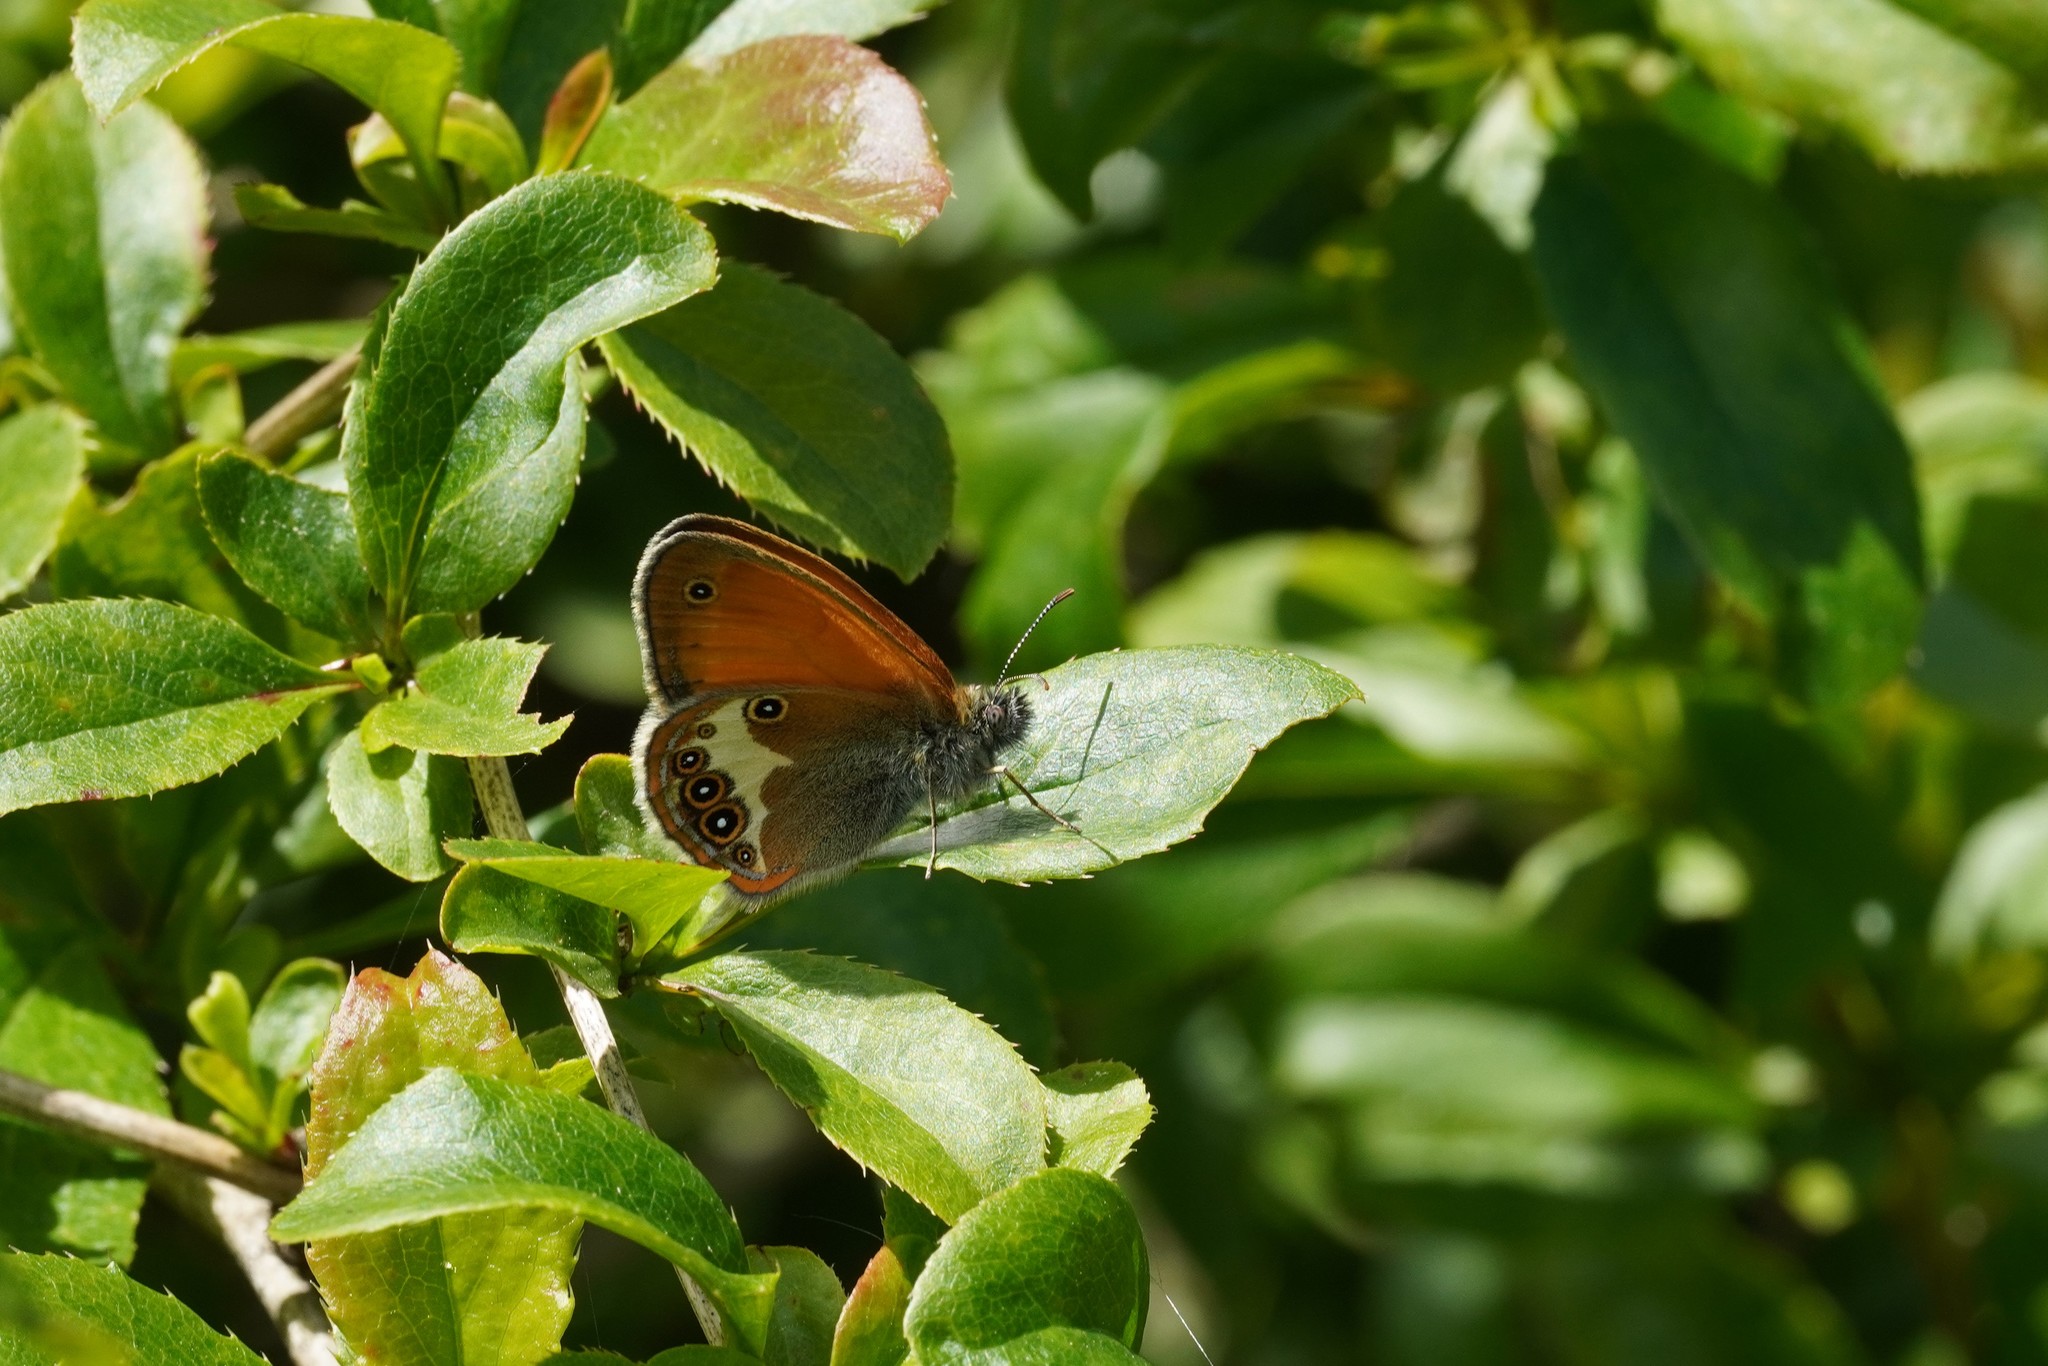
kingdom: Animalia
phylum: Arthropoda
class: Insecta
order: Lepidoptera
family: Nymphalidae
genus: Coenonympha
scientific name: Coenonympha arcania
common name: Pearly heath
